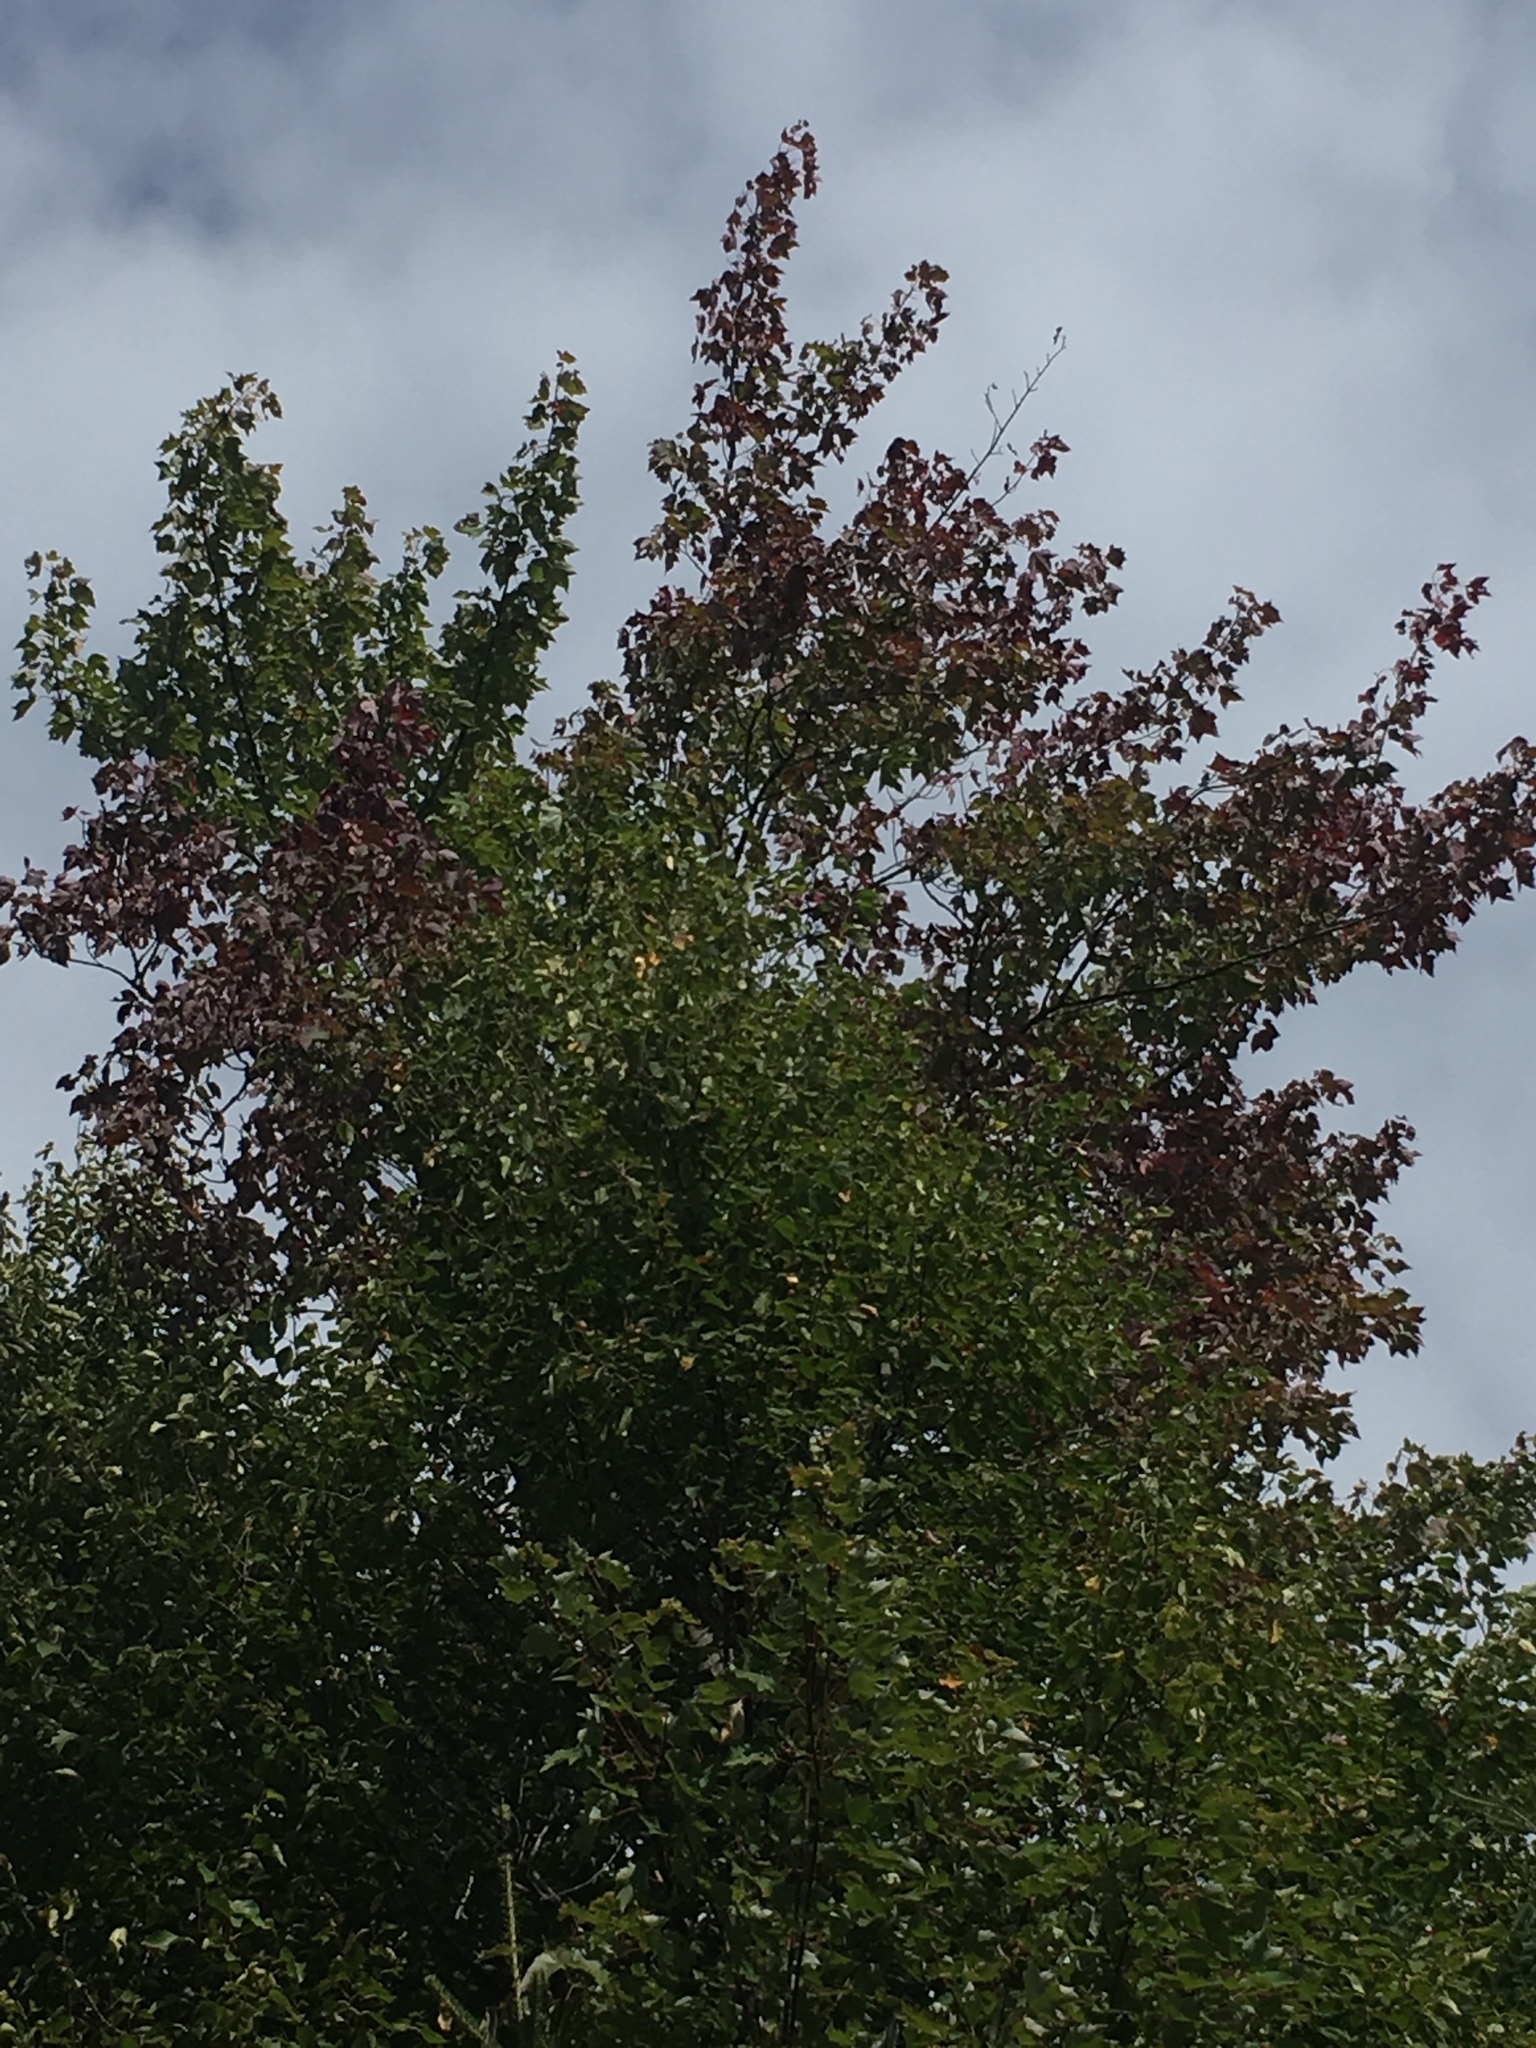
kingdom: Plantae
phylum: Tracheophyta
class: Magnoliopsida
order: Sapindales
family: Sapindaceae
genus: Acer
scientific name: Acer rubrum
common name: Red maple
